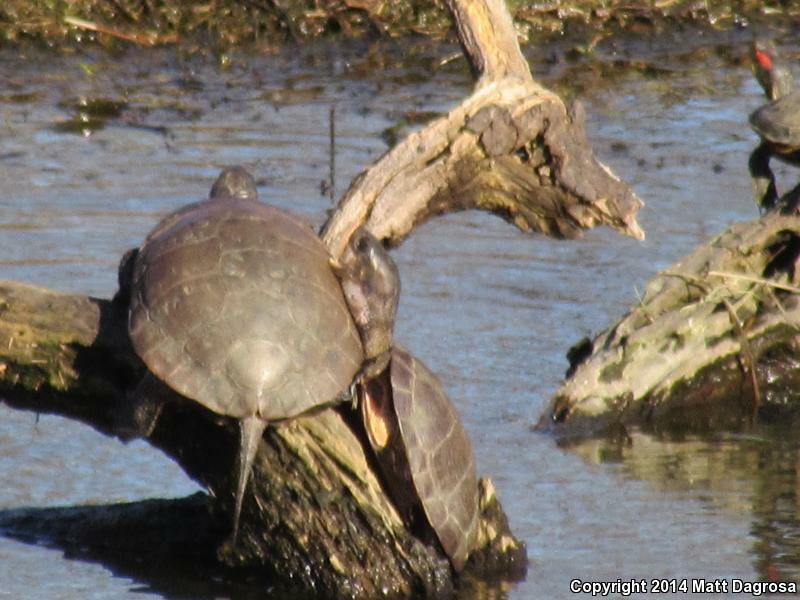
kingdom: Animalia
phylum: Chordata
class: Testudines
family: Emydidae
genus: Actinemys
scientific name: Actinemys marmorata
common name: Western pond turtle
